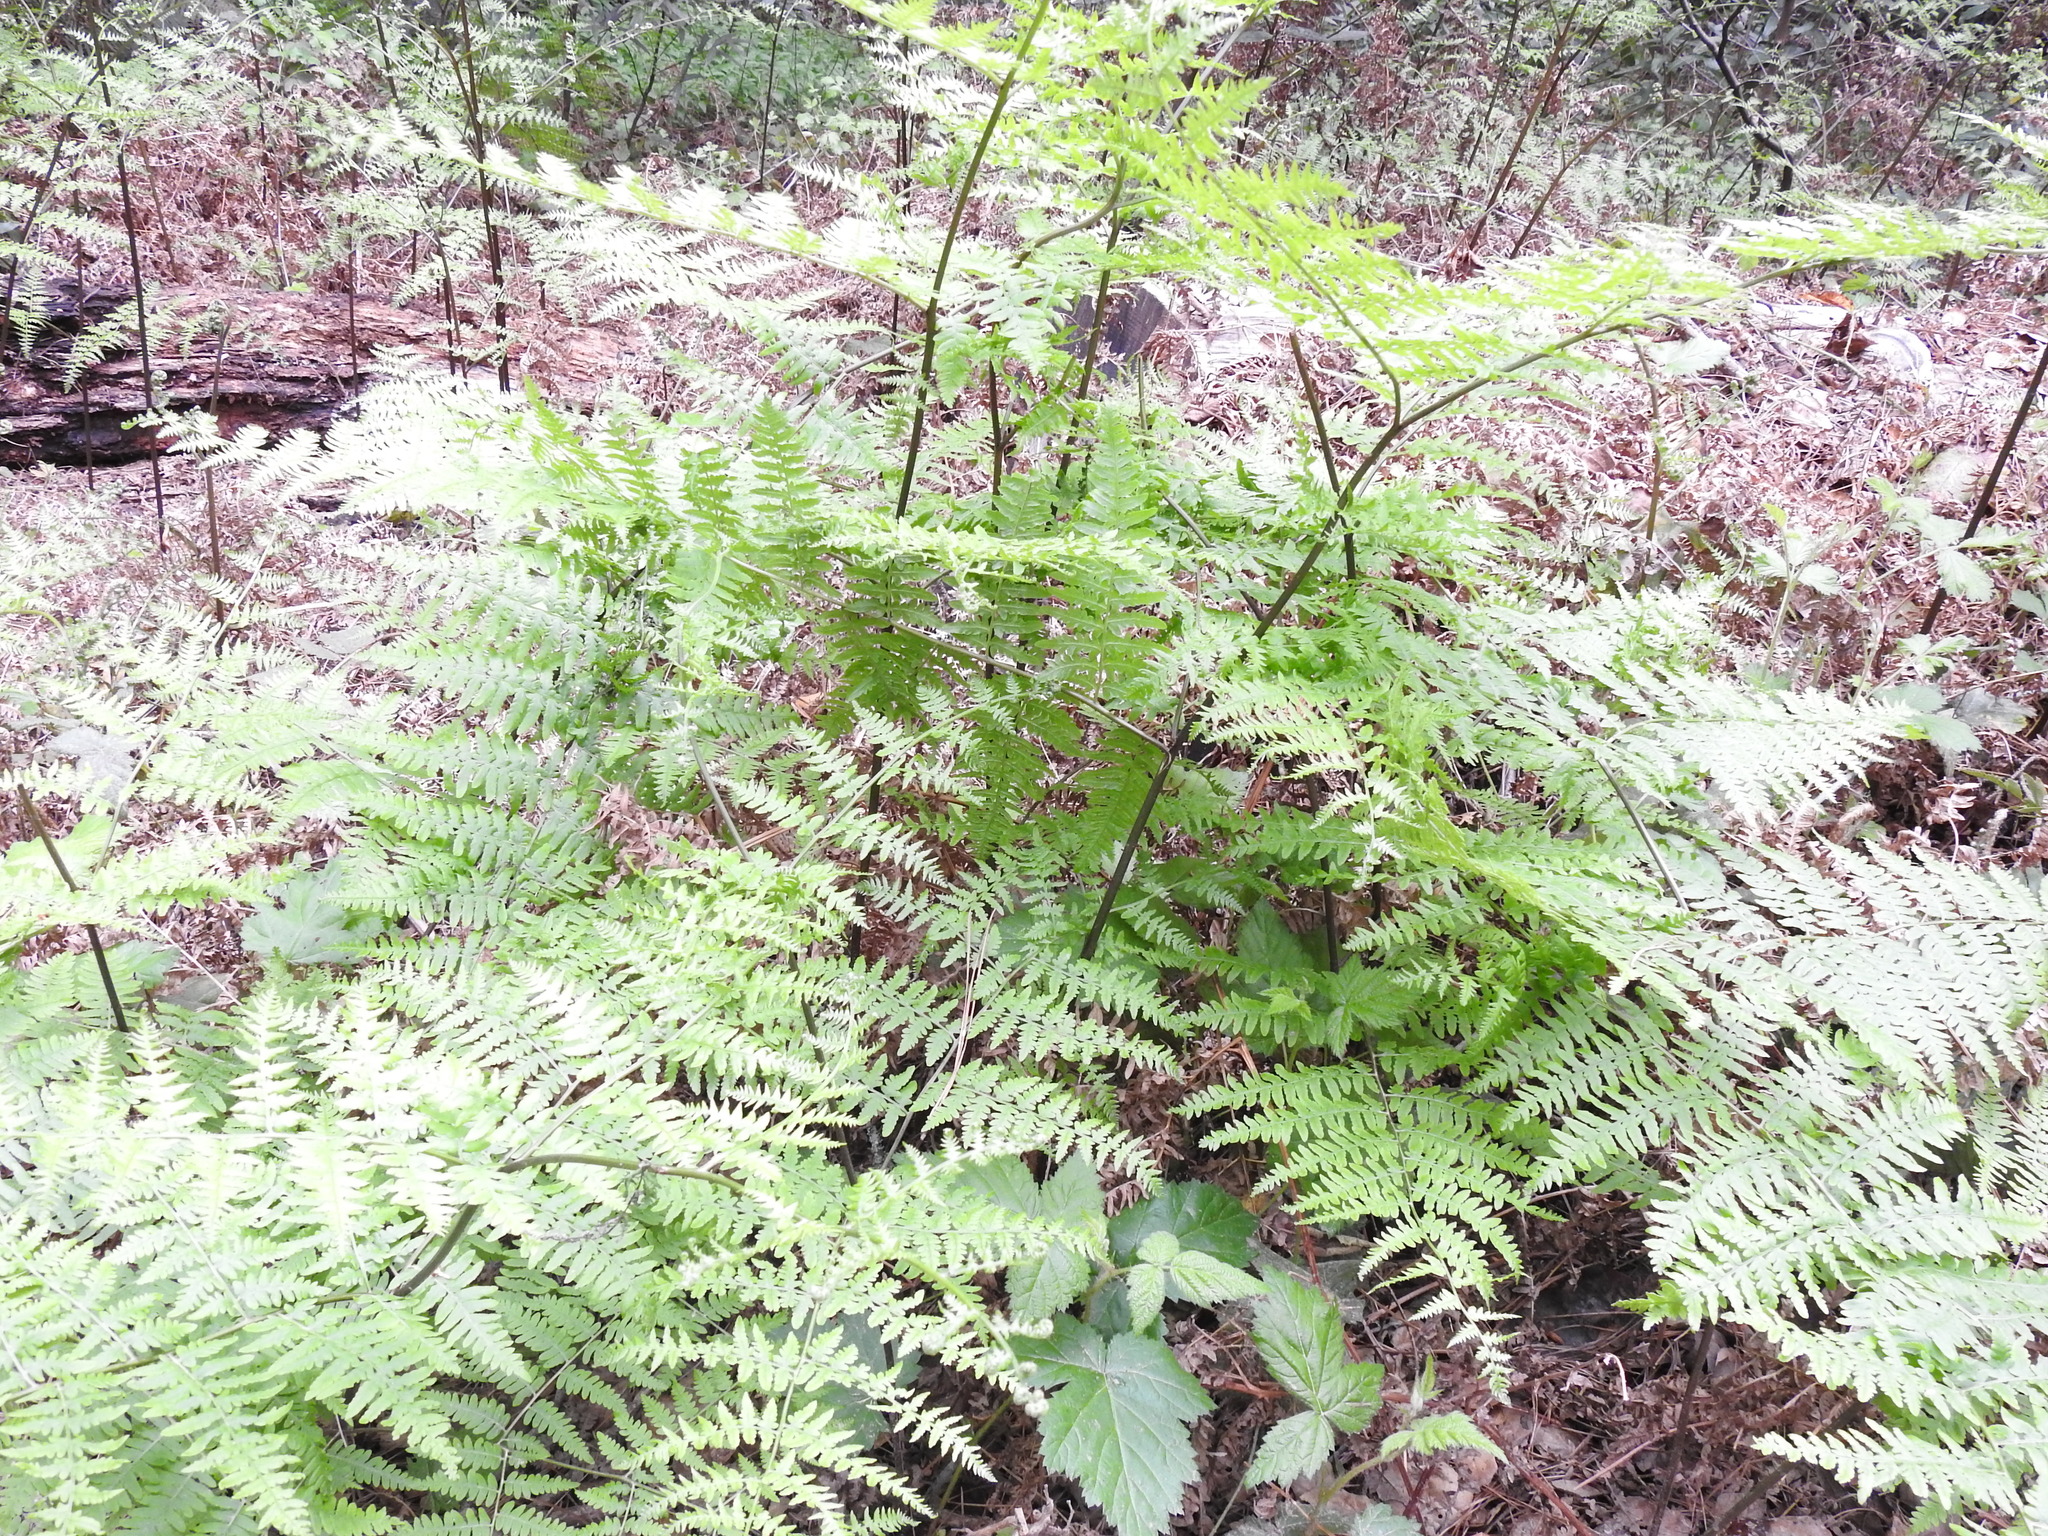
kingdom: Plantae
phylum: Tracheophyta
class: Polypodiopsida
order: Polypodiales
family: Dennstaedtiaceae
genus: Pteridium
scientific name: Pteridium aquilinum
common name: Bracken
